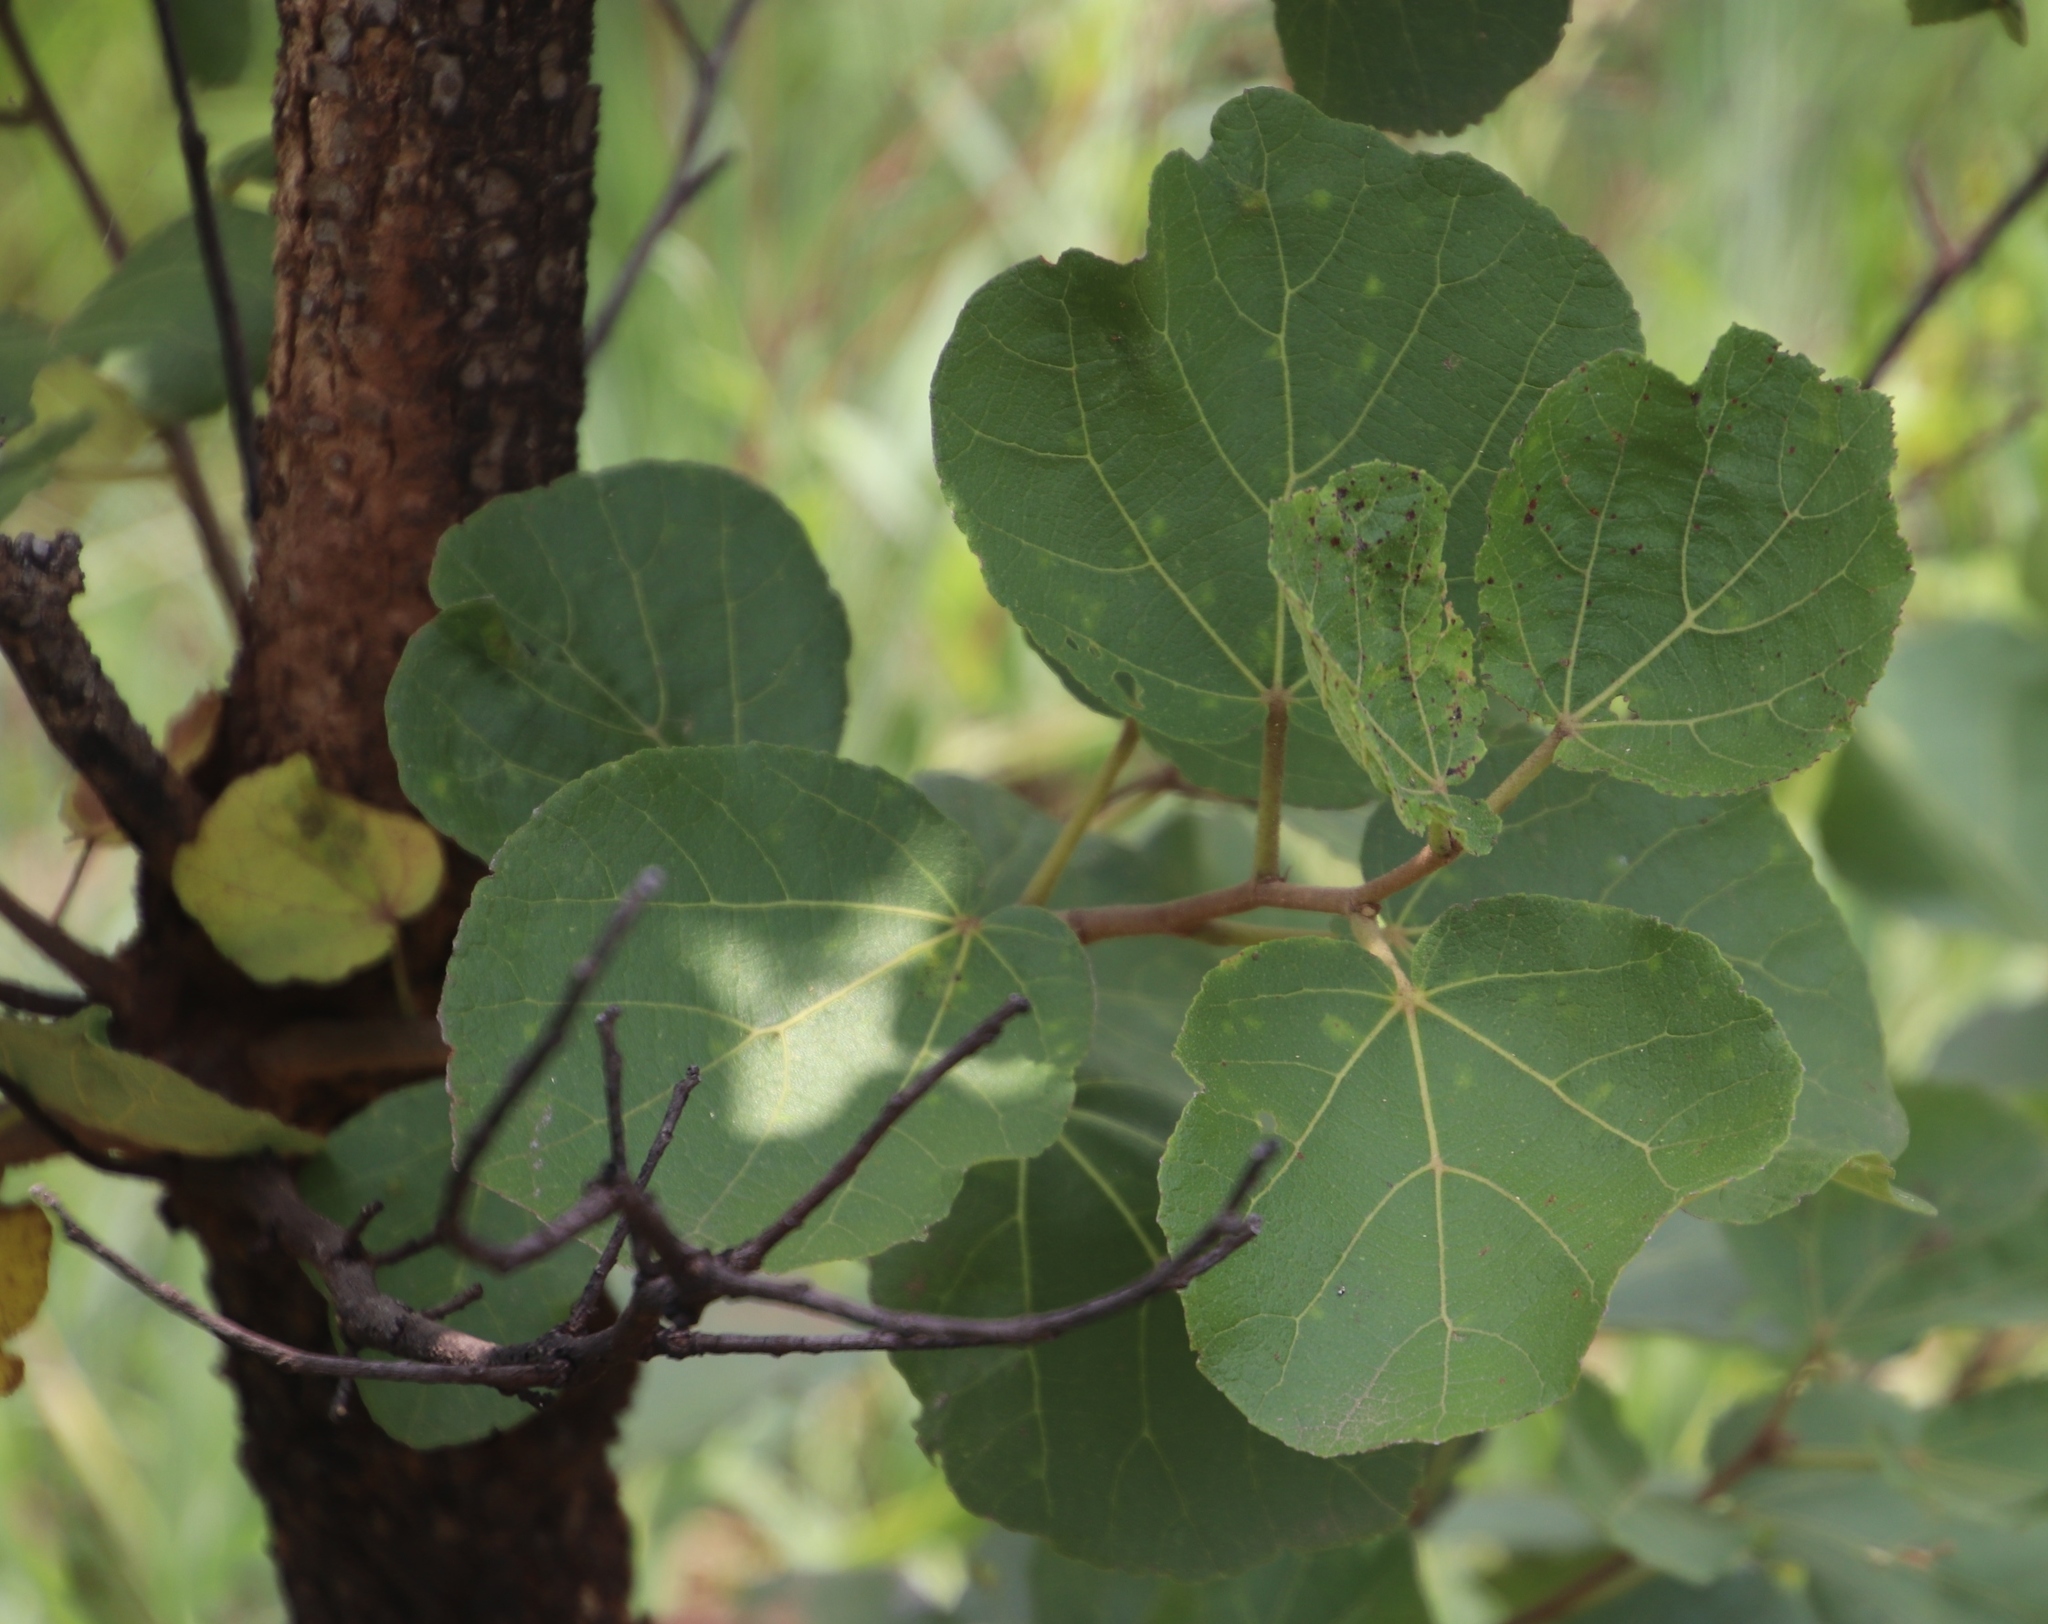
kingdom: Plantae
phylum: Tracheophyta
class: Magnoliopsida
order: Malvales
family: Malvaceae
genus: Dombeya
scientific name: Dombeya rotundifolia
